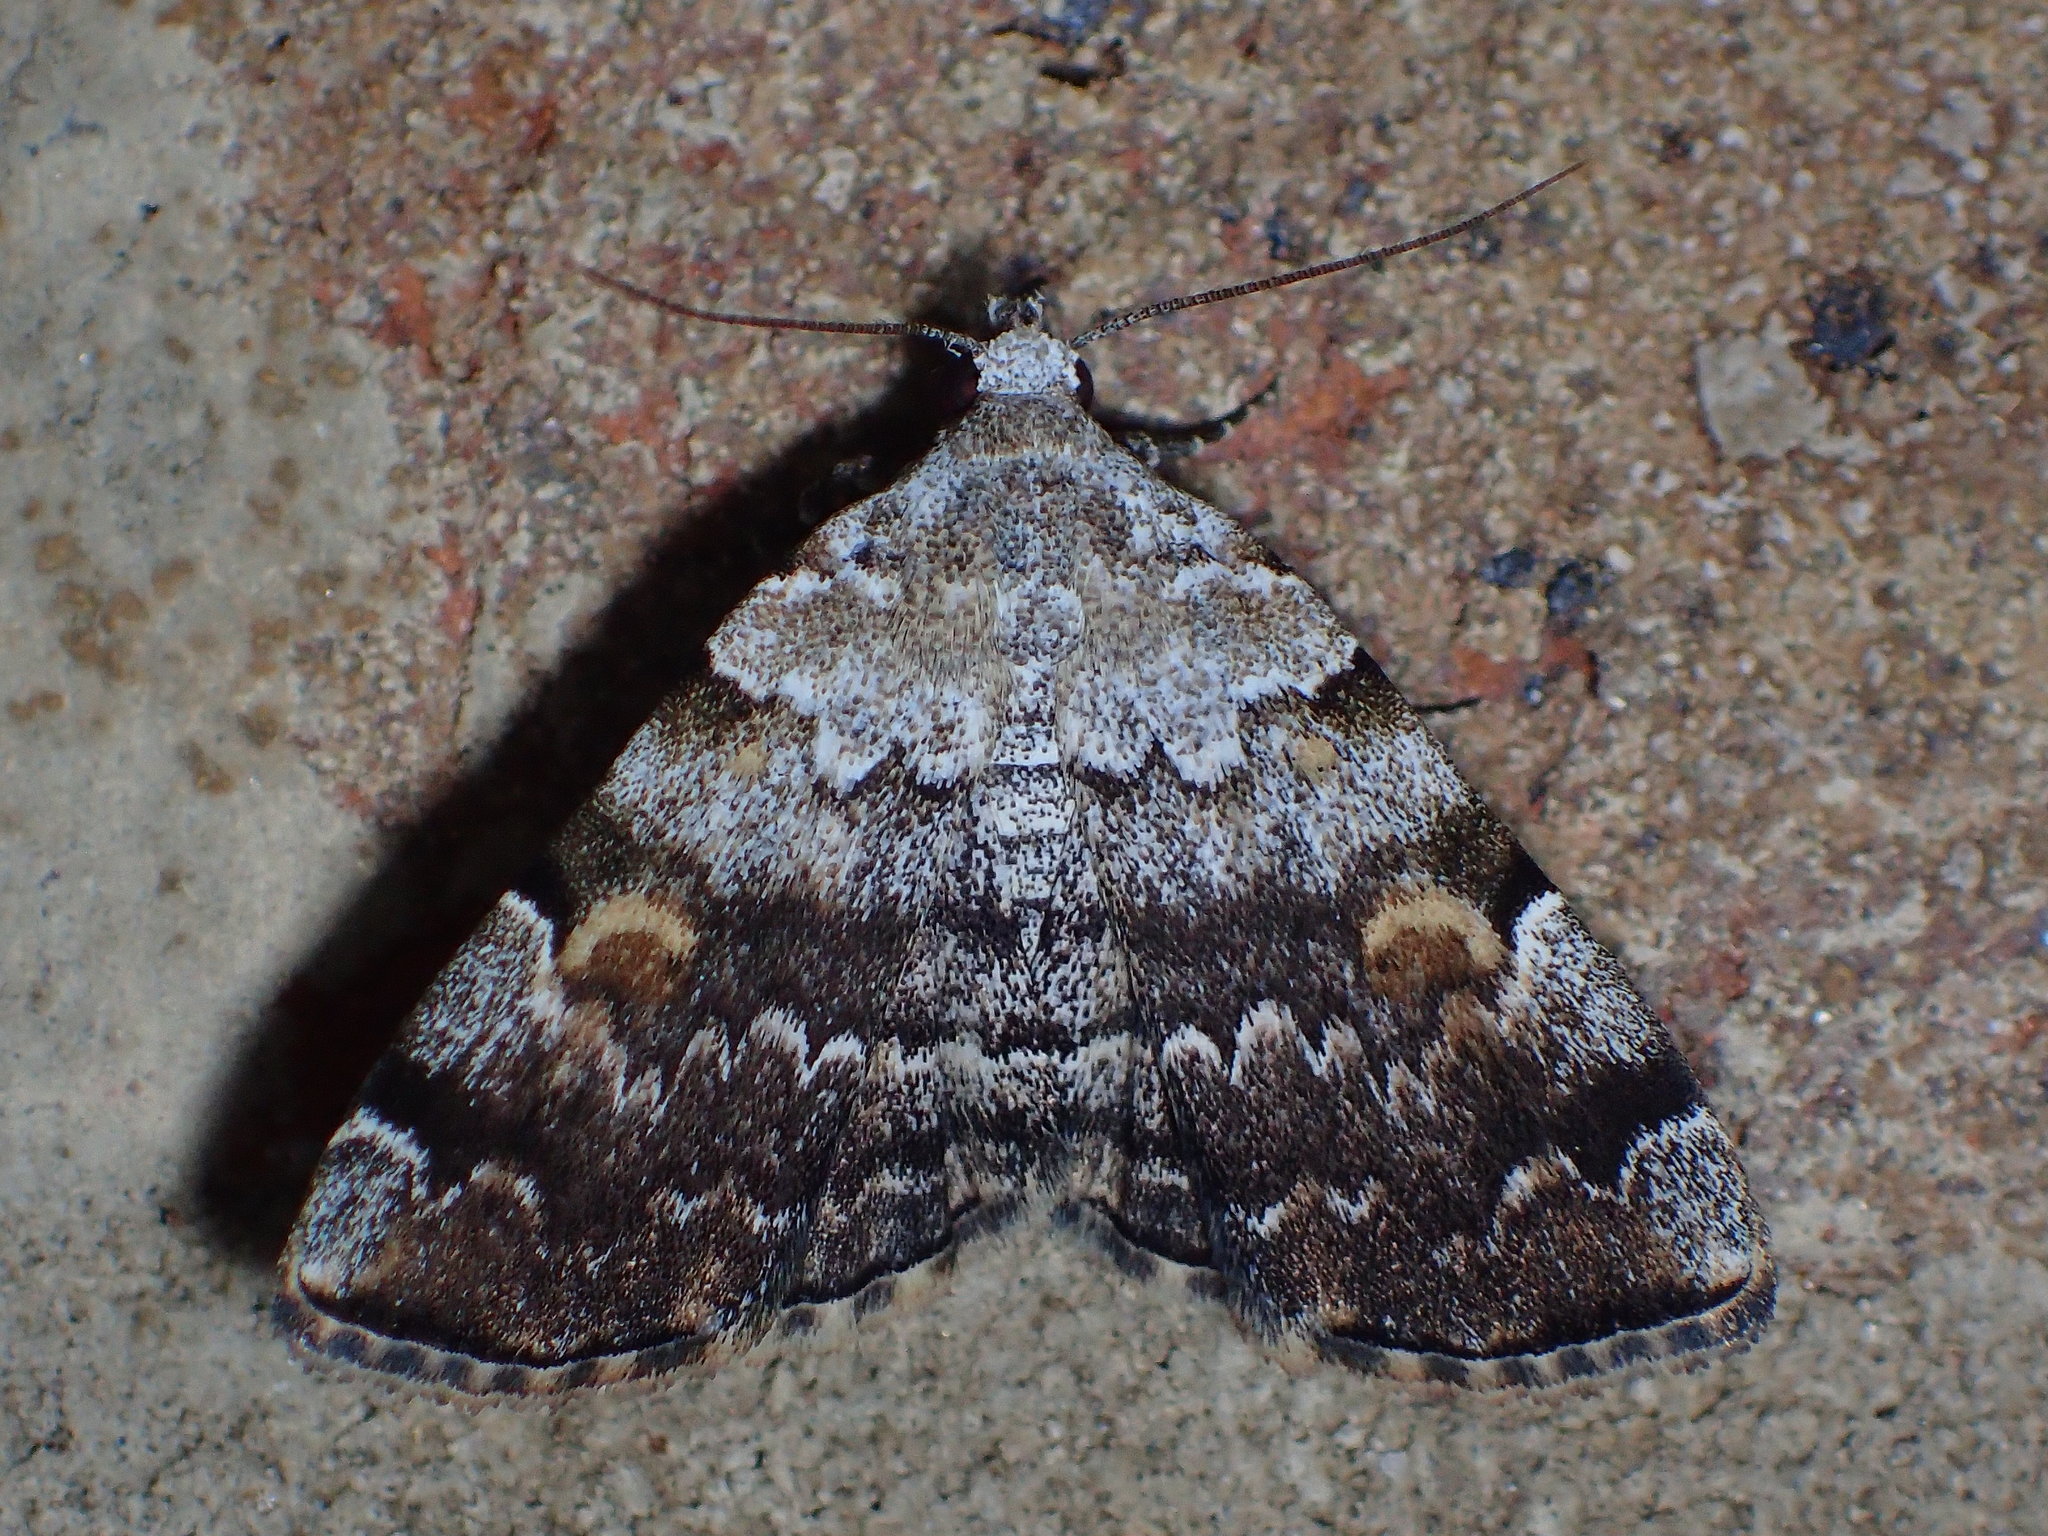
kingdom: Animalia
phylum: Arthropoda
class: Insecta
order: Lepidoptera
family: Erebidae
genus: Idia
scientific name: Idia americalis
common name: American idia moth
